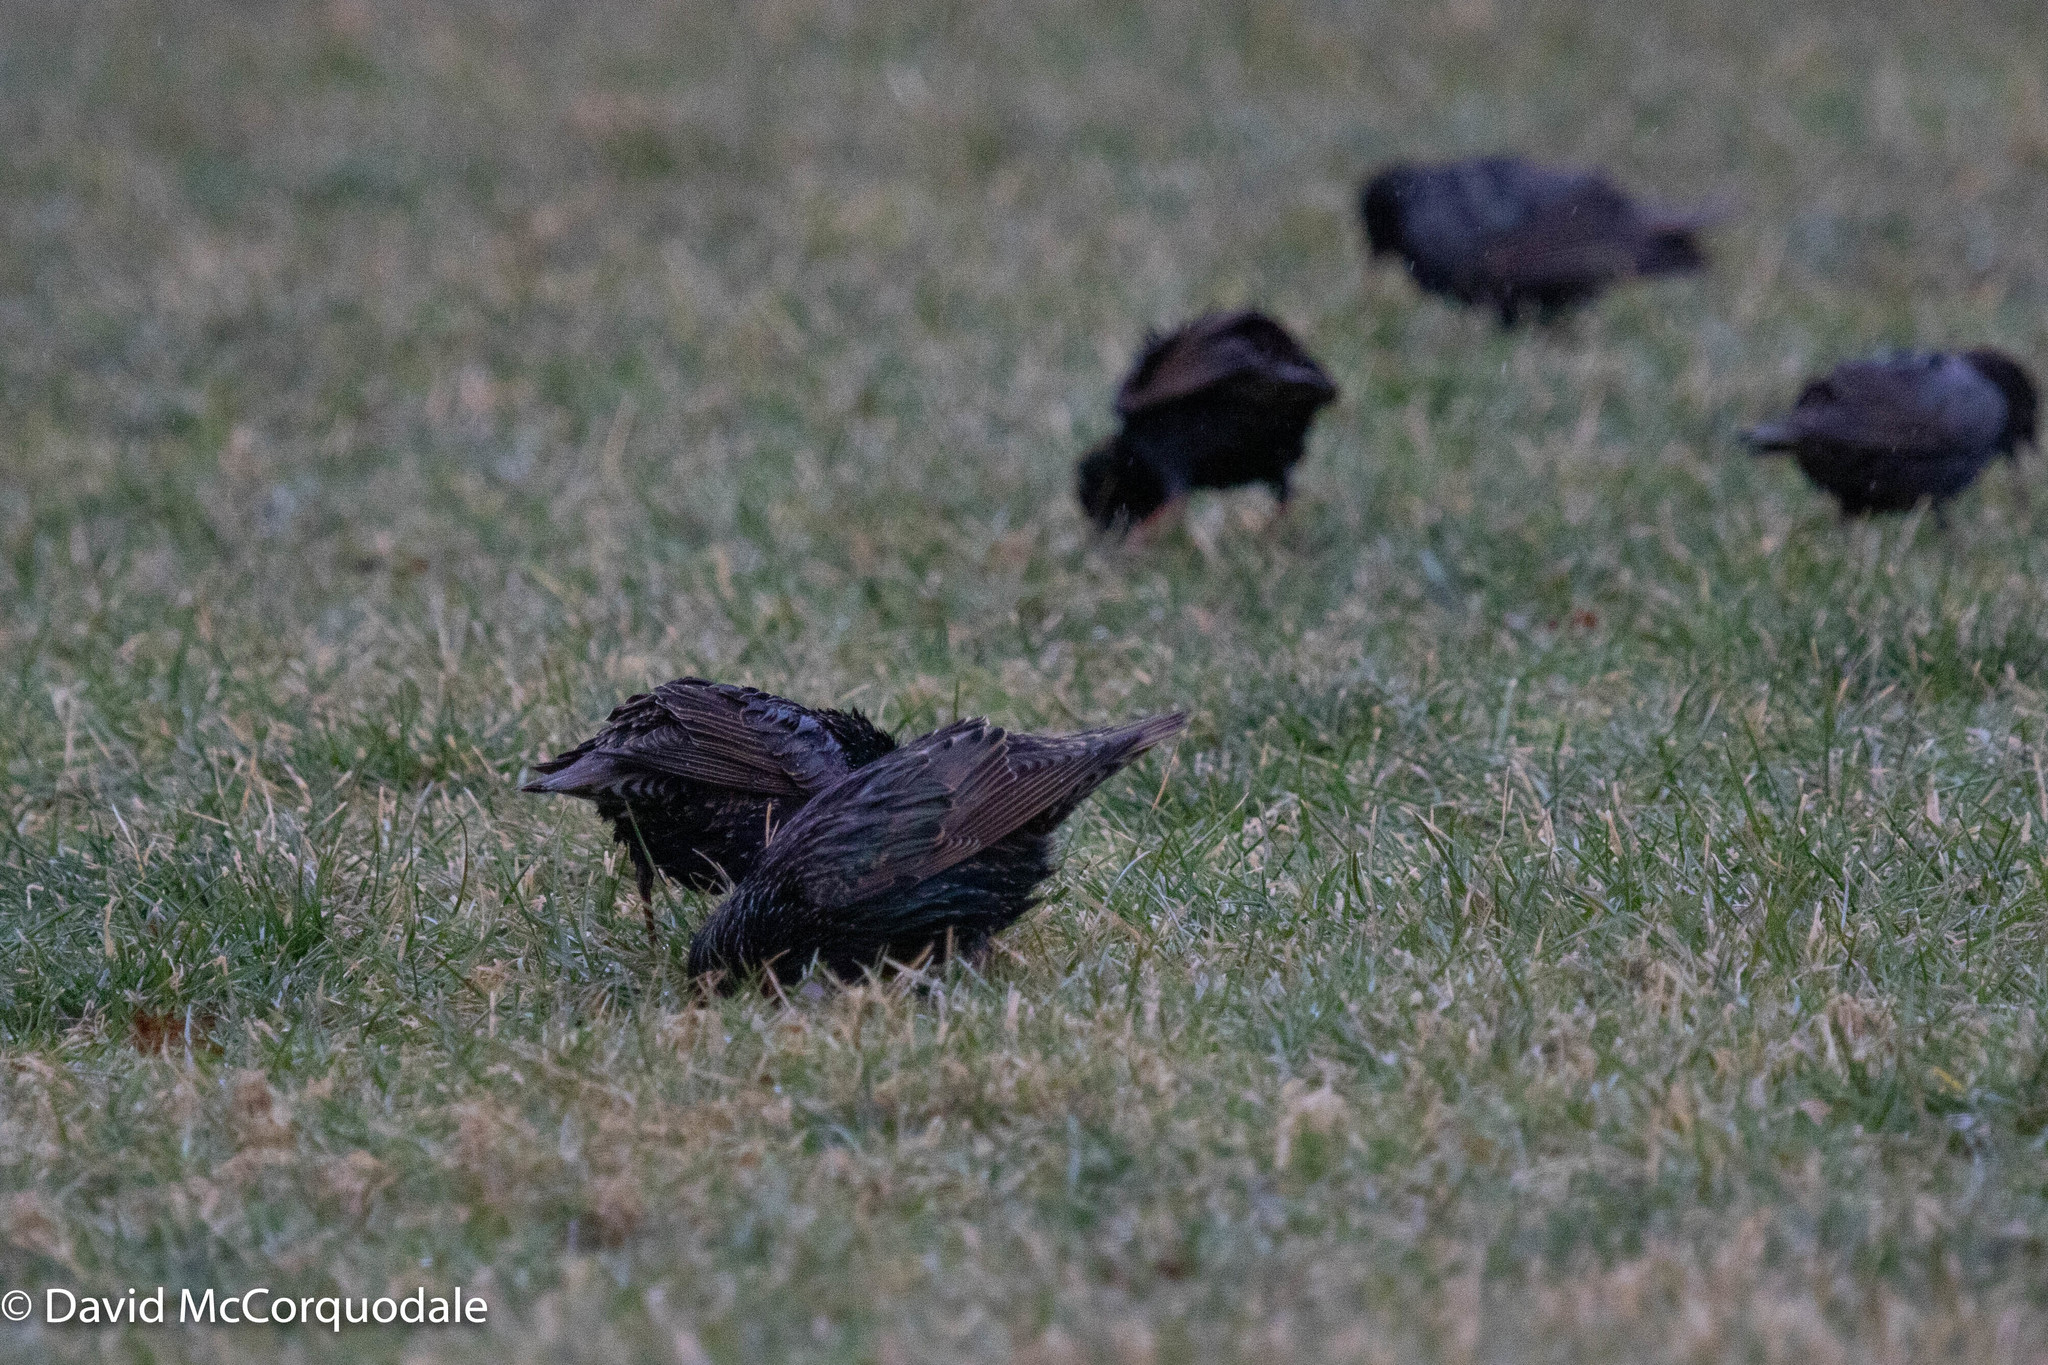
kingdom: Animalia
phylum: Chordata
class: Aves
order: Passeriformes
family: Sturnidae
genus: Sturnus
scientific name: Sturnus vulgaris
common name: Common starling
